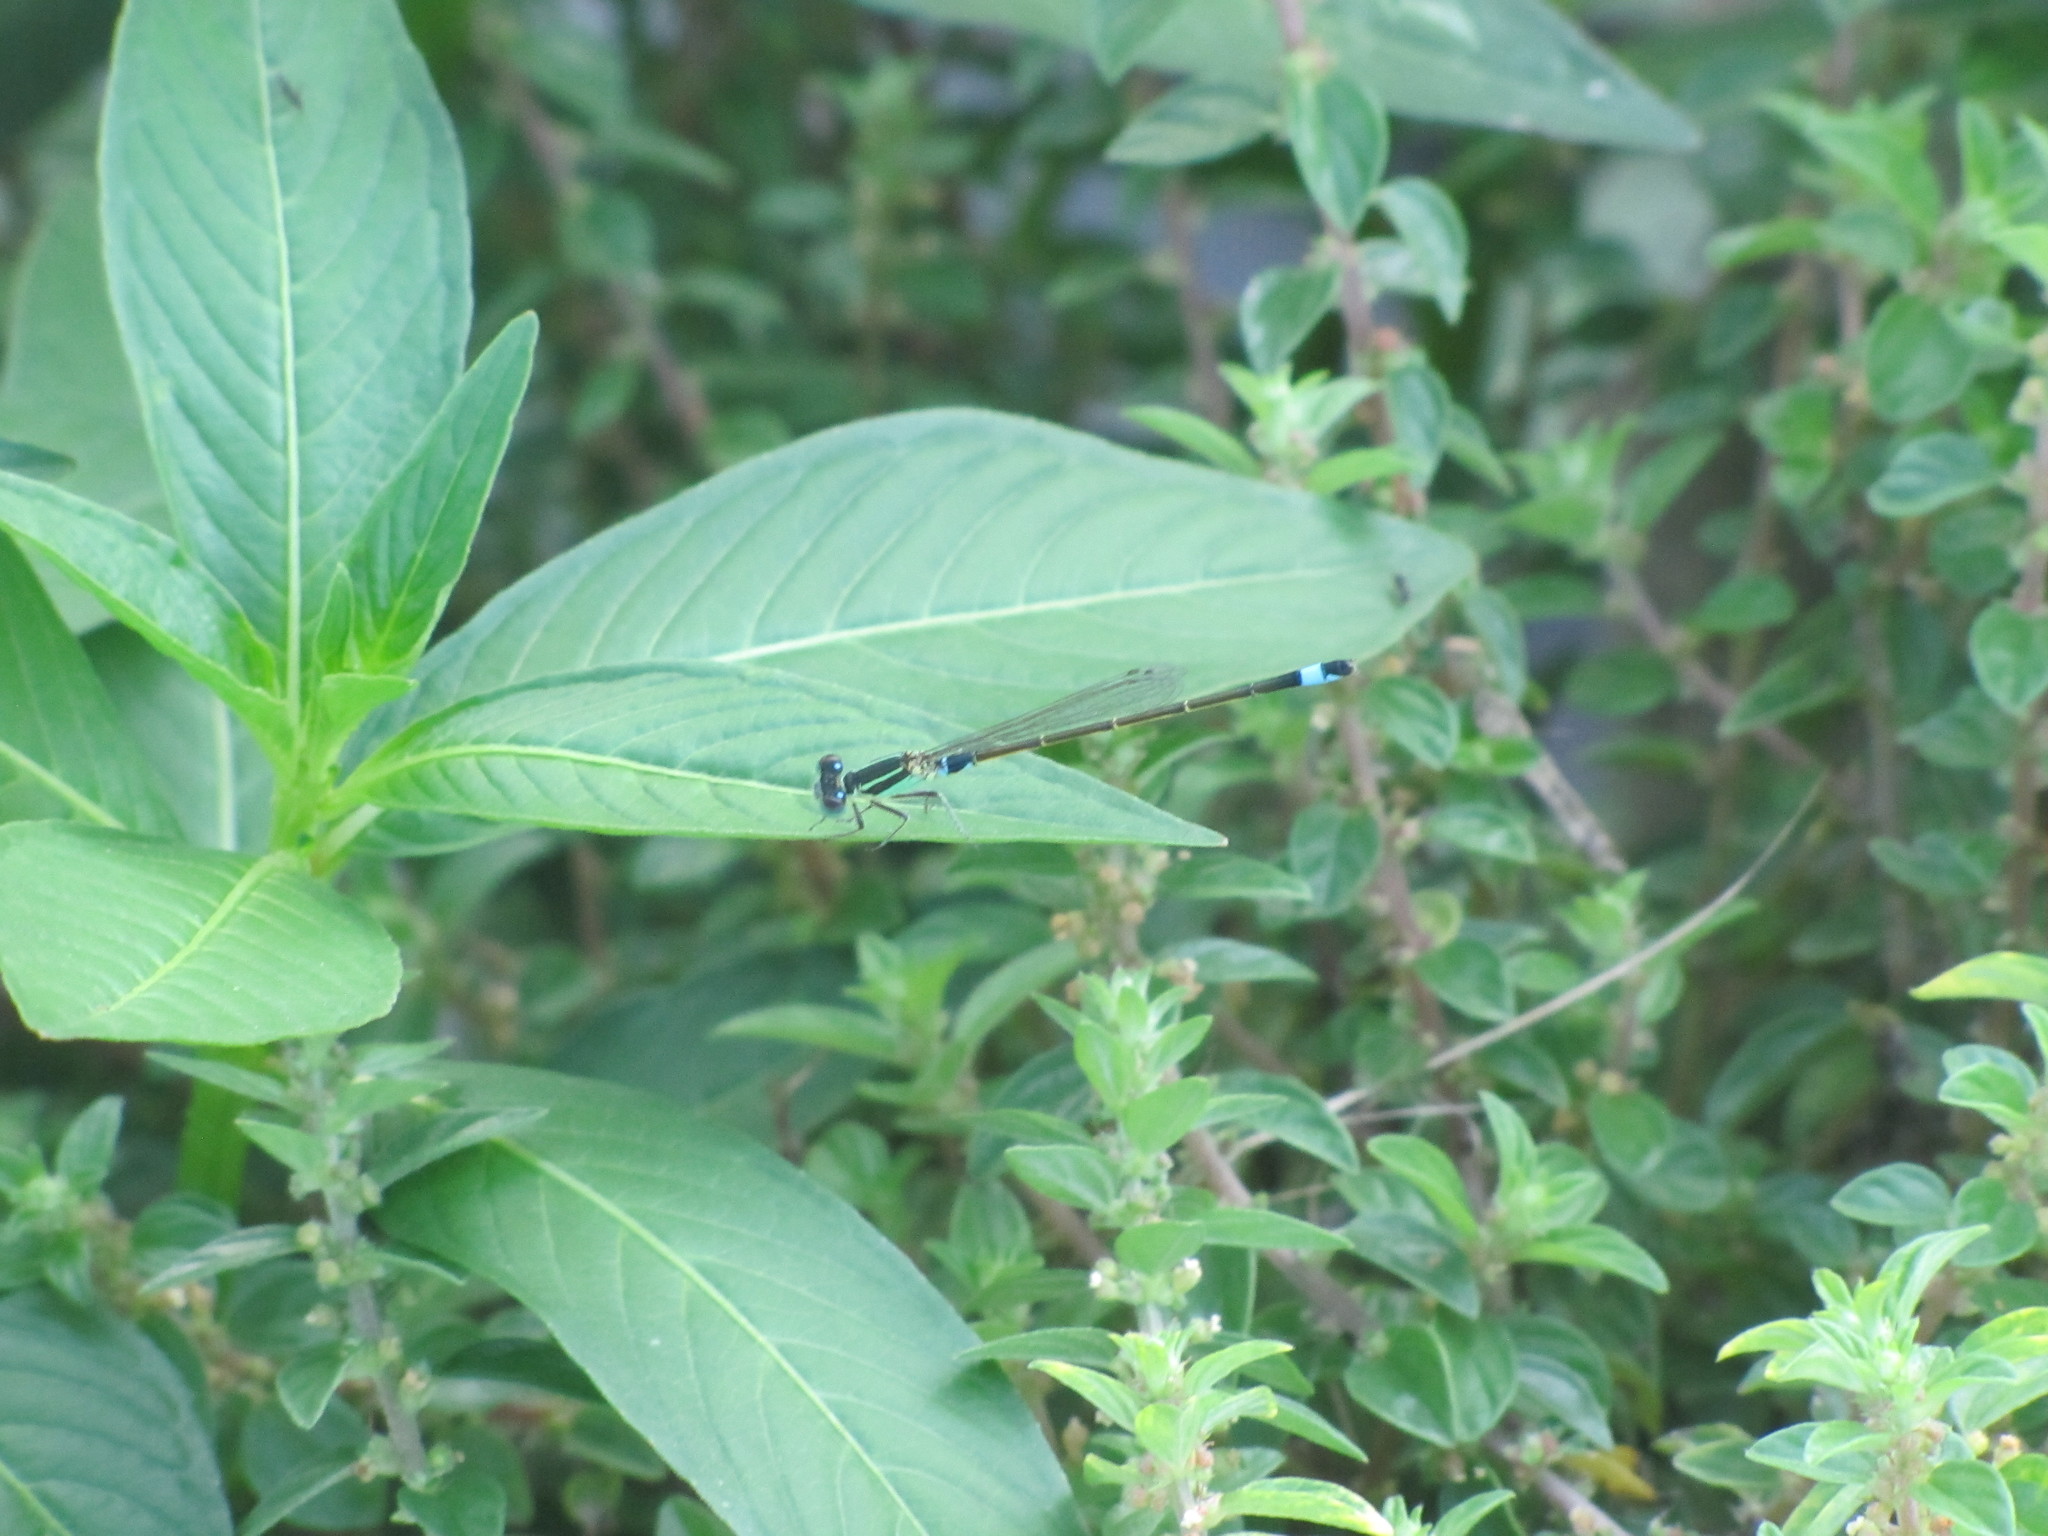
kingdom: Animalia
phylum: Arthropoda
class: Insecta
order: Odonata
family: Coenagrionidae
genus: Ischnura
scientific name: Ischnura senegalensis
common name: Tropical bluetail
